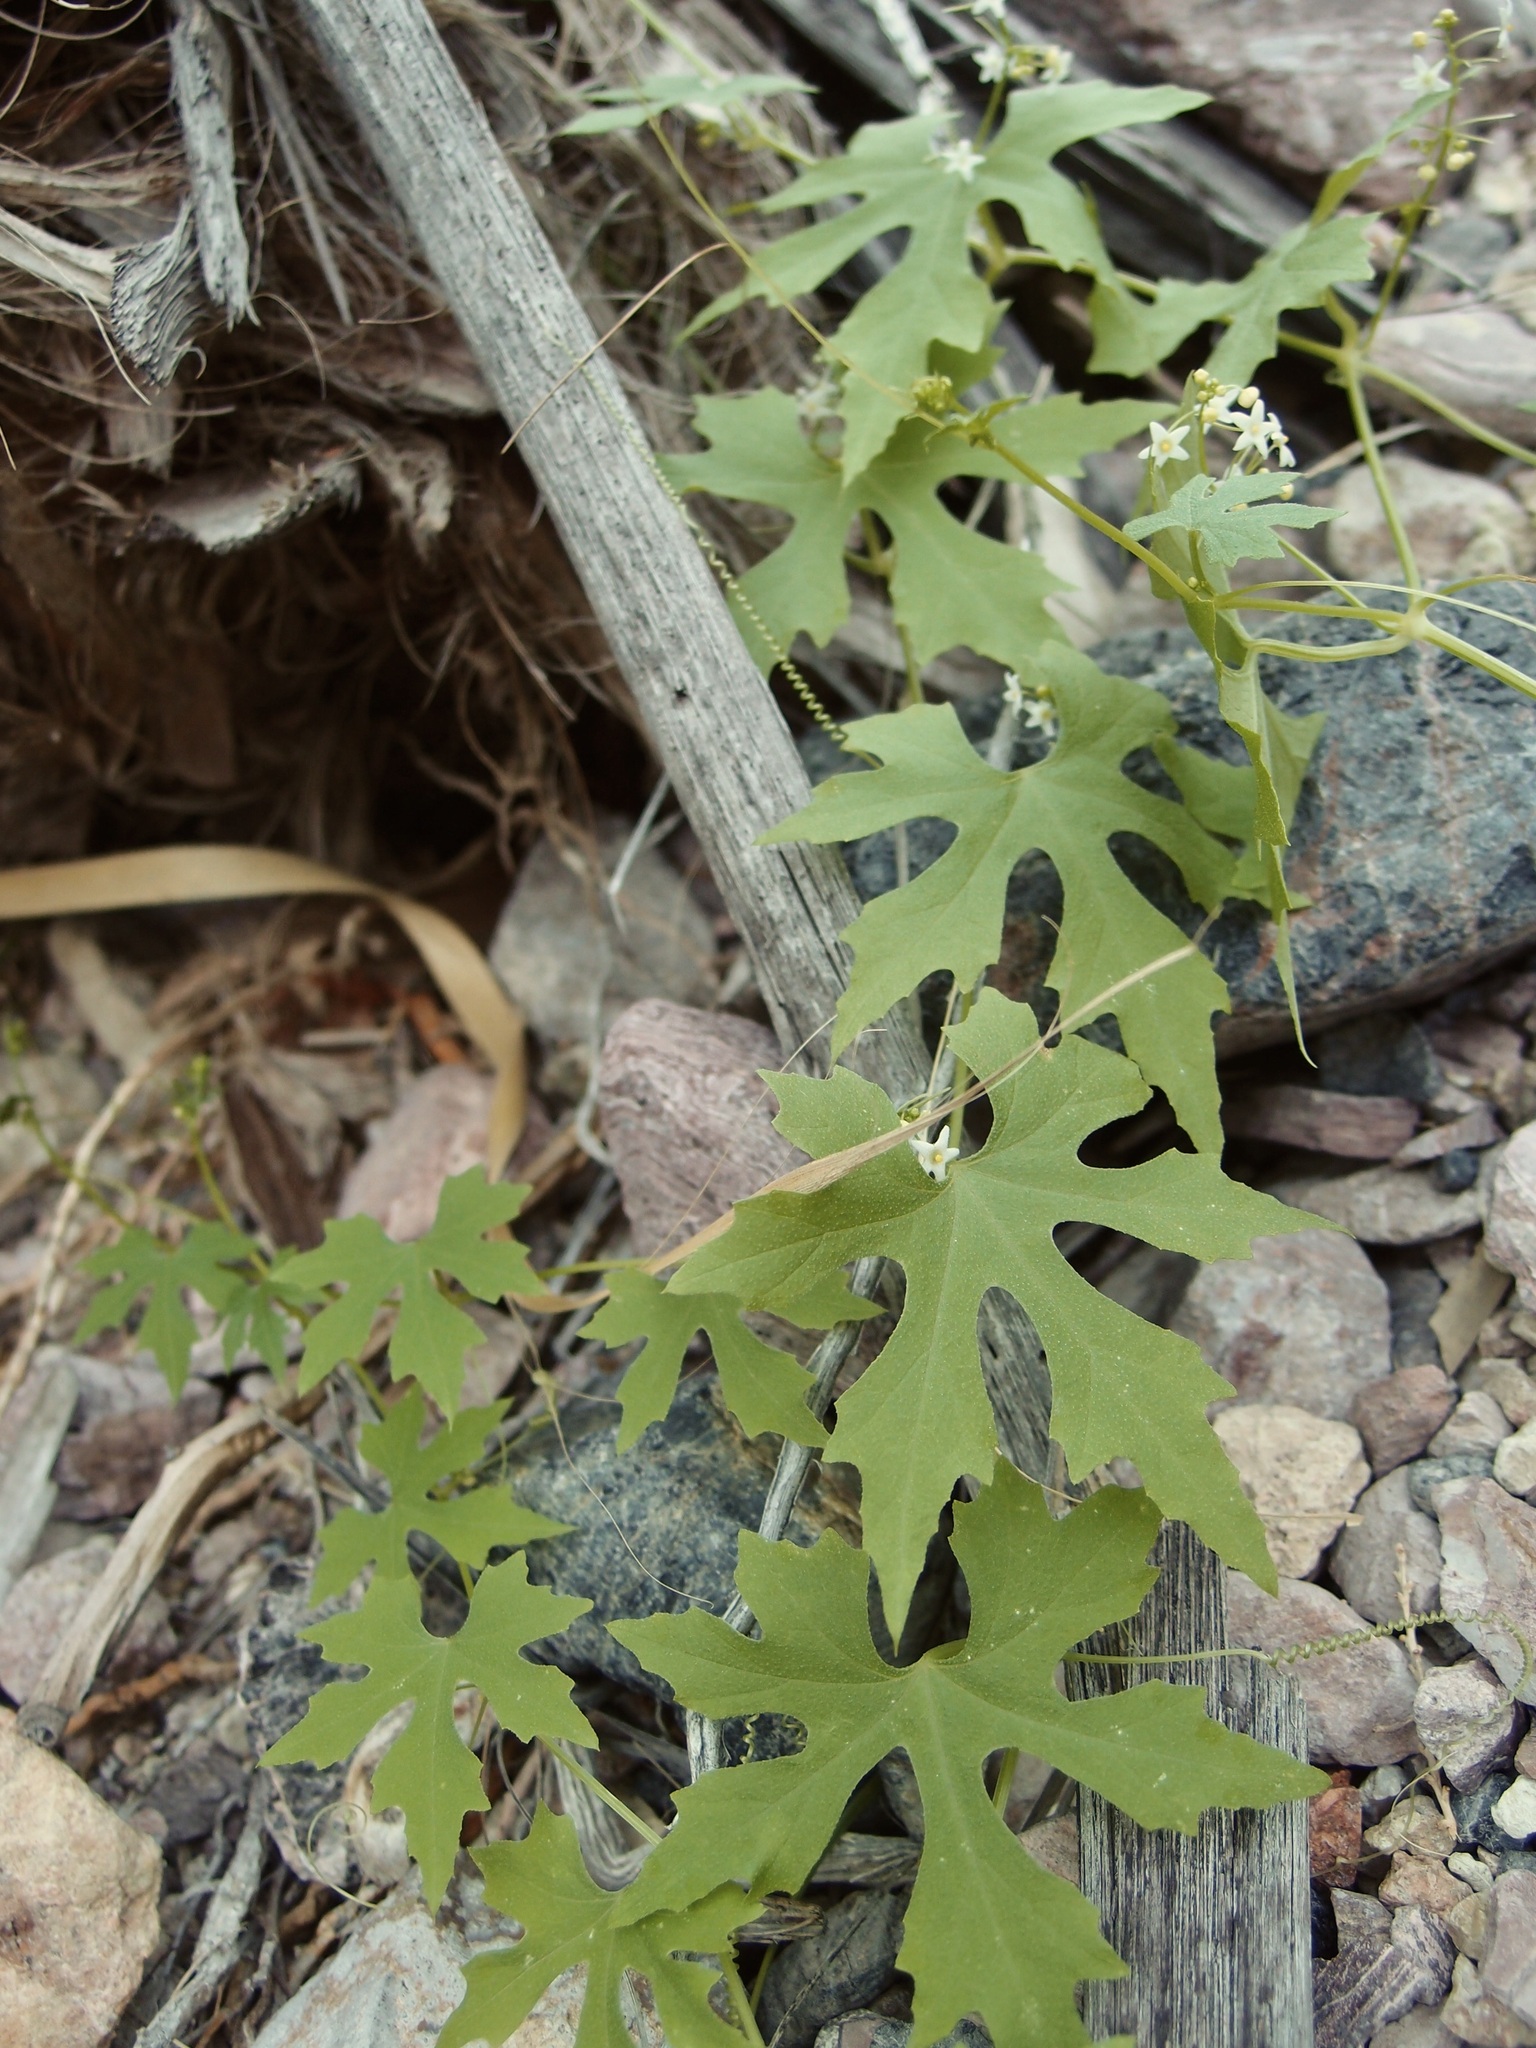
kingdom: Plantae
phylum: Tracheophyta
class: Magnoliopsida
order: Lamiales
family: Acanthaceae
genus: Elytraria
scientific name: Elytraria imbricata
